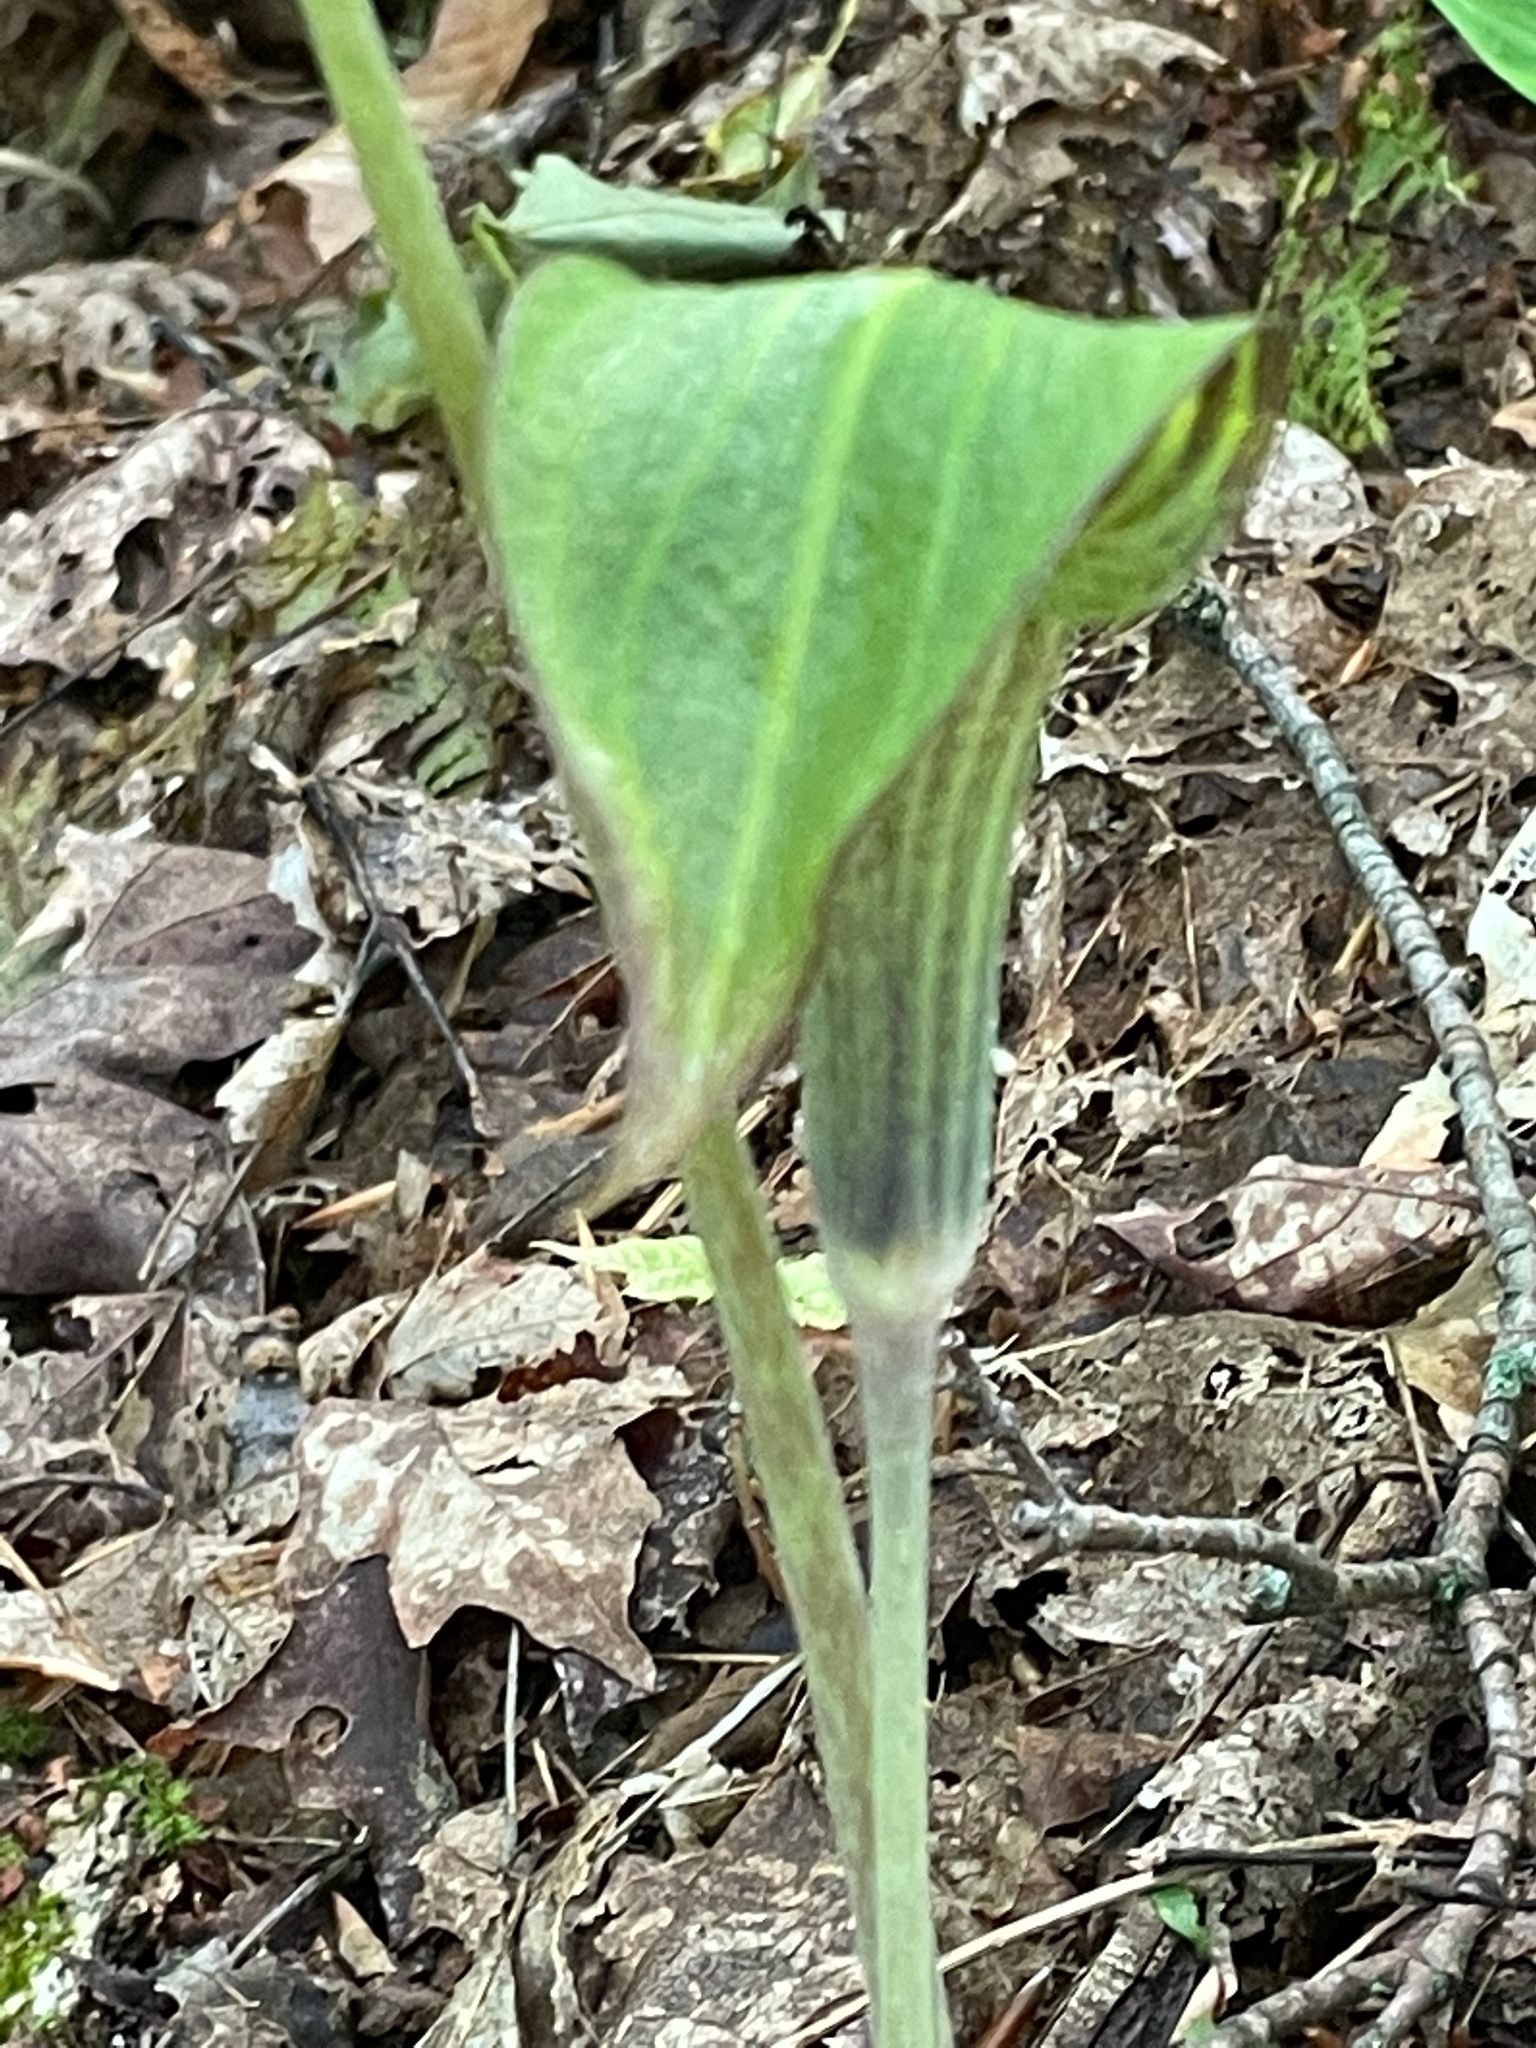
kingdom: Plantae
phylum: Tracheophyta
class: Liliopsida
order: Alismatales
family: Araceae
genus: Arisaema
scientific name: Arisaema triphyllum
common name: Jack-in-the-pulpit
